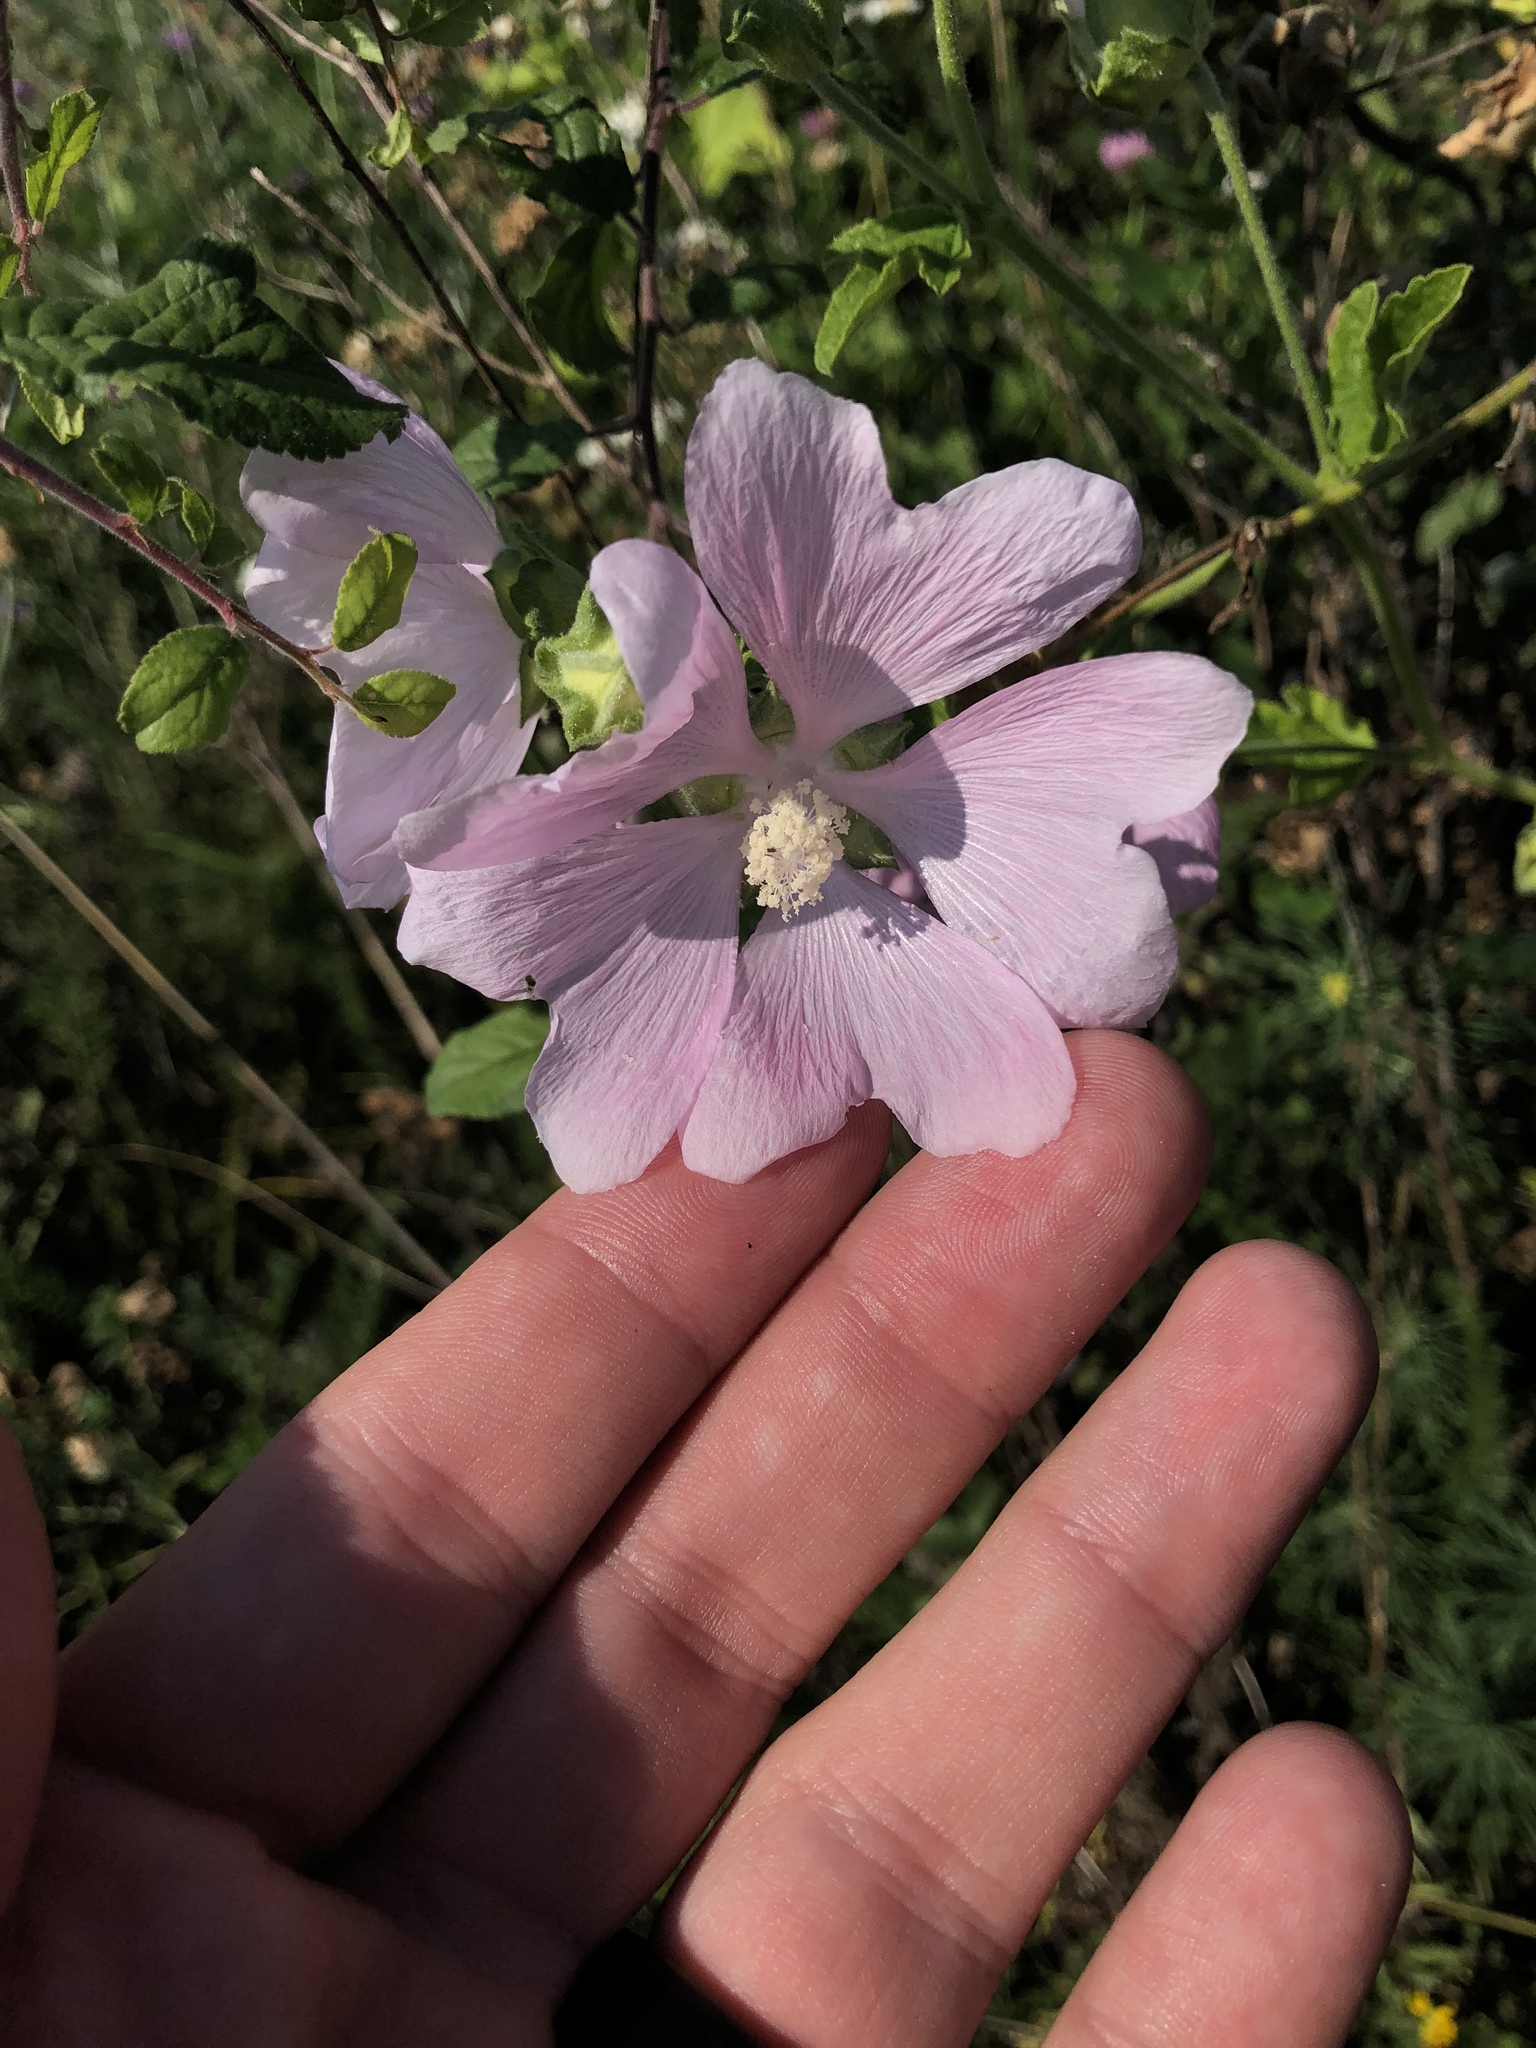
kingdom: Plantae
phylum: Tracheophyta
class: Magnoliopsida
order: Malvales
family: Malvaceae
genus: Malva
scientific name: Malva thuringiaca
